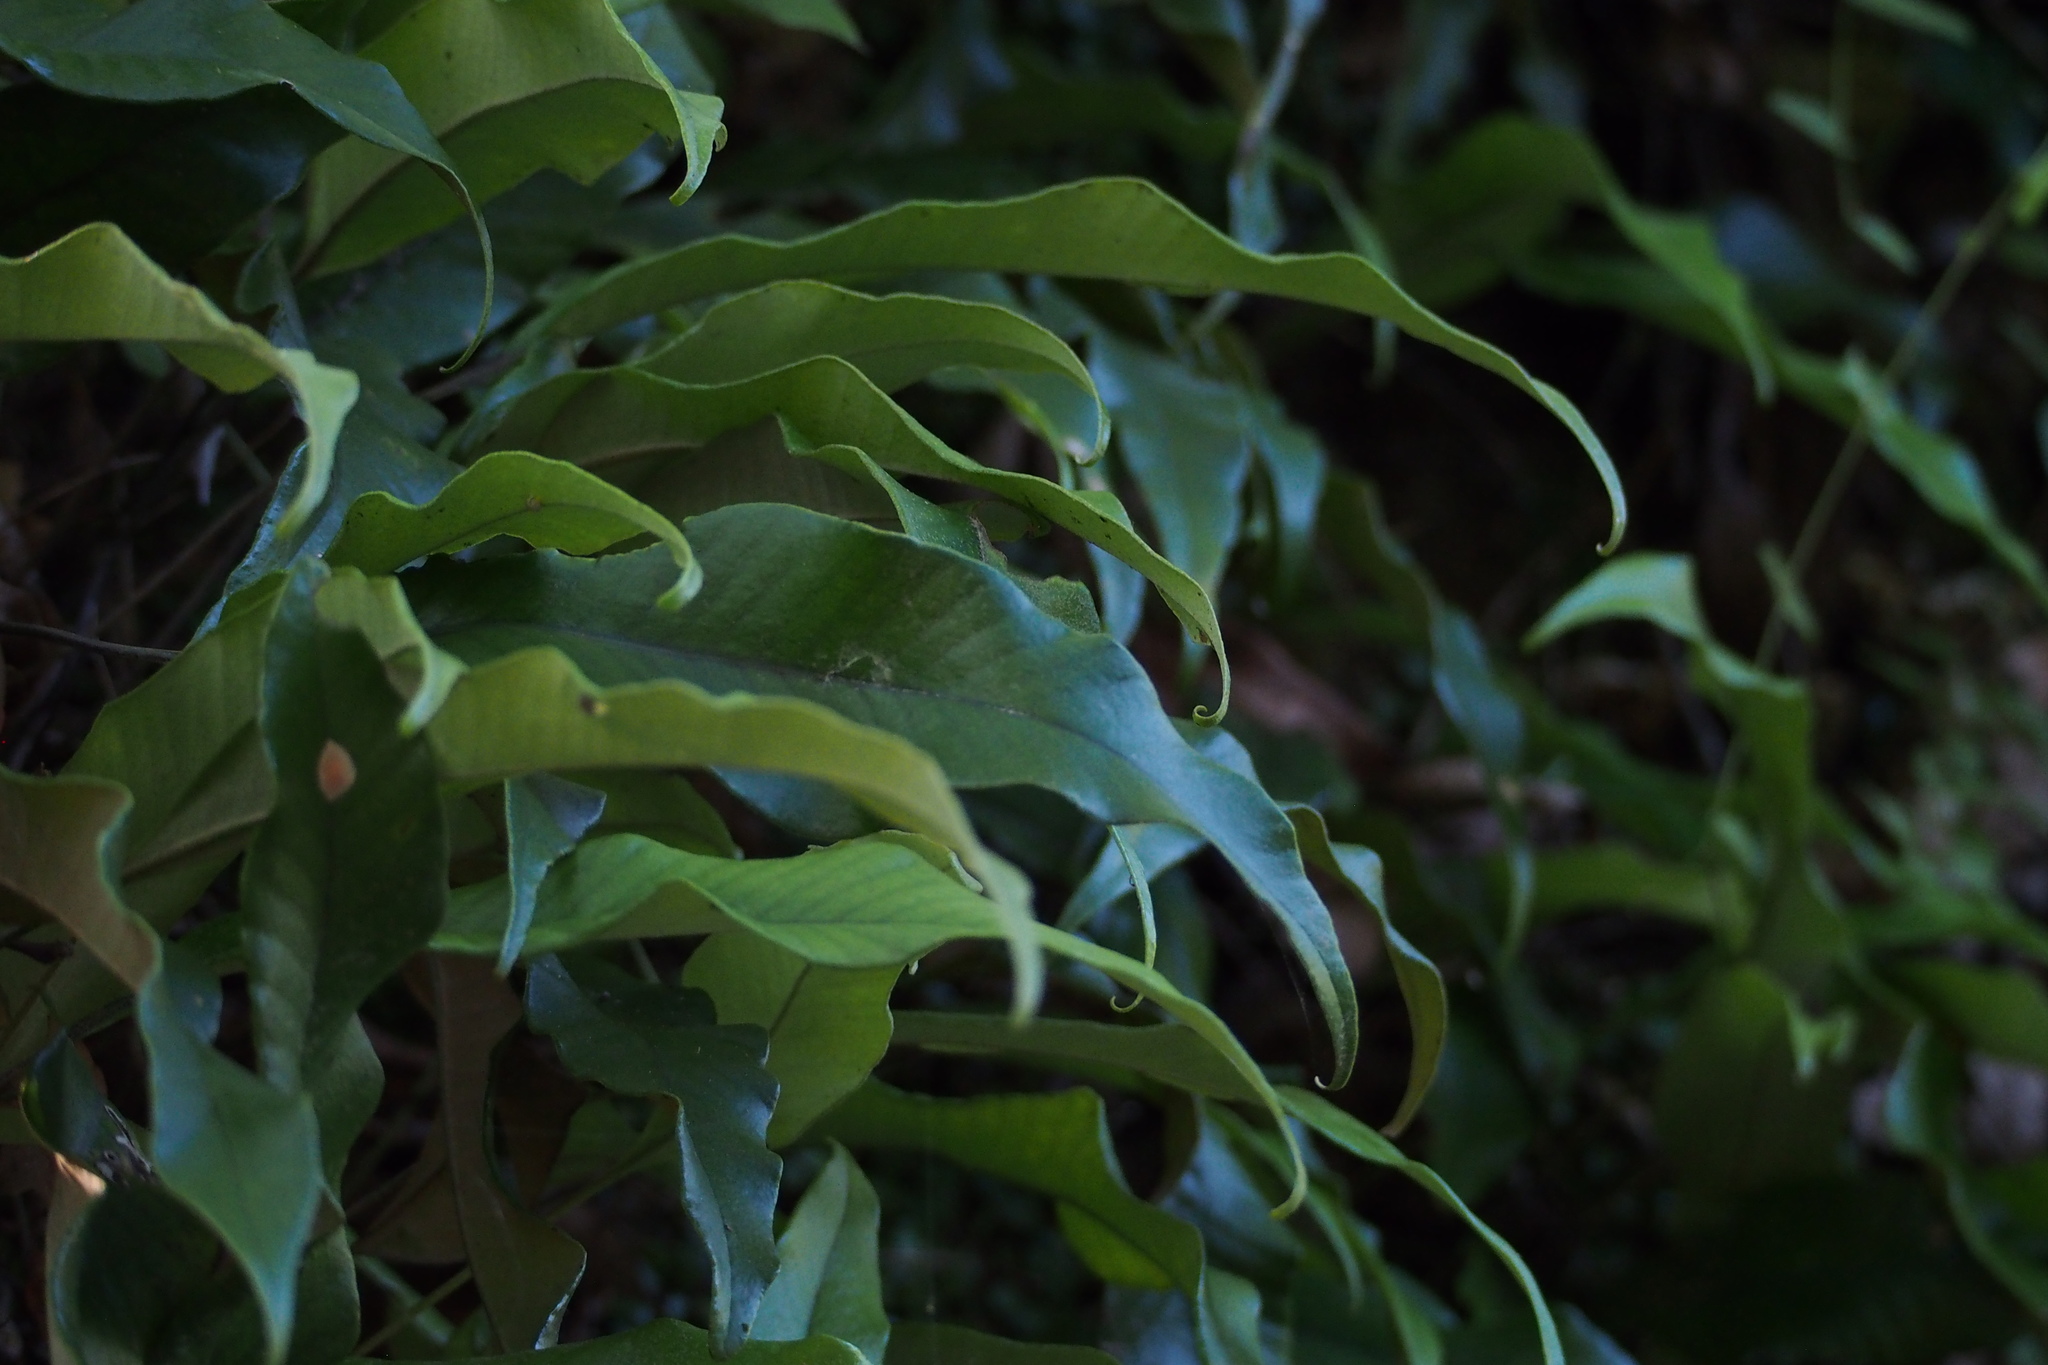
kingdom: Plantae
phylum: Tracheophyta
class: Polypodiopsida
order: Polypodiales
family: Polypodiaceae
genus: Pyrrosia
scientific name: Pyrrosia lingua
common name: Felt fern
